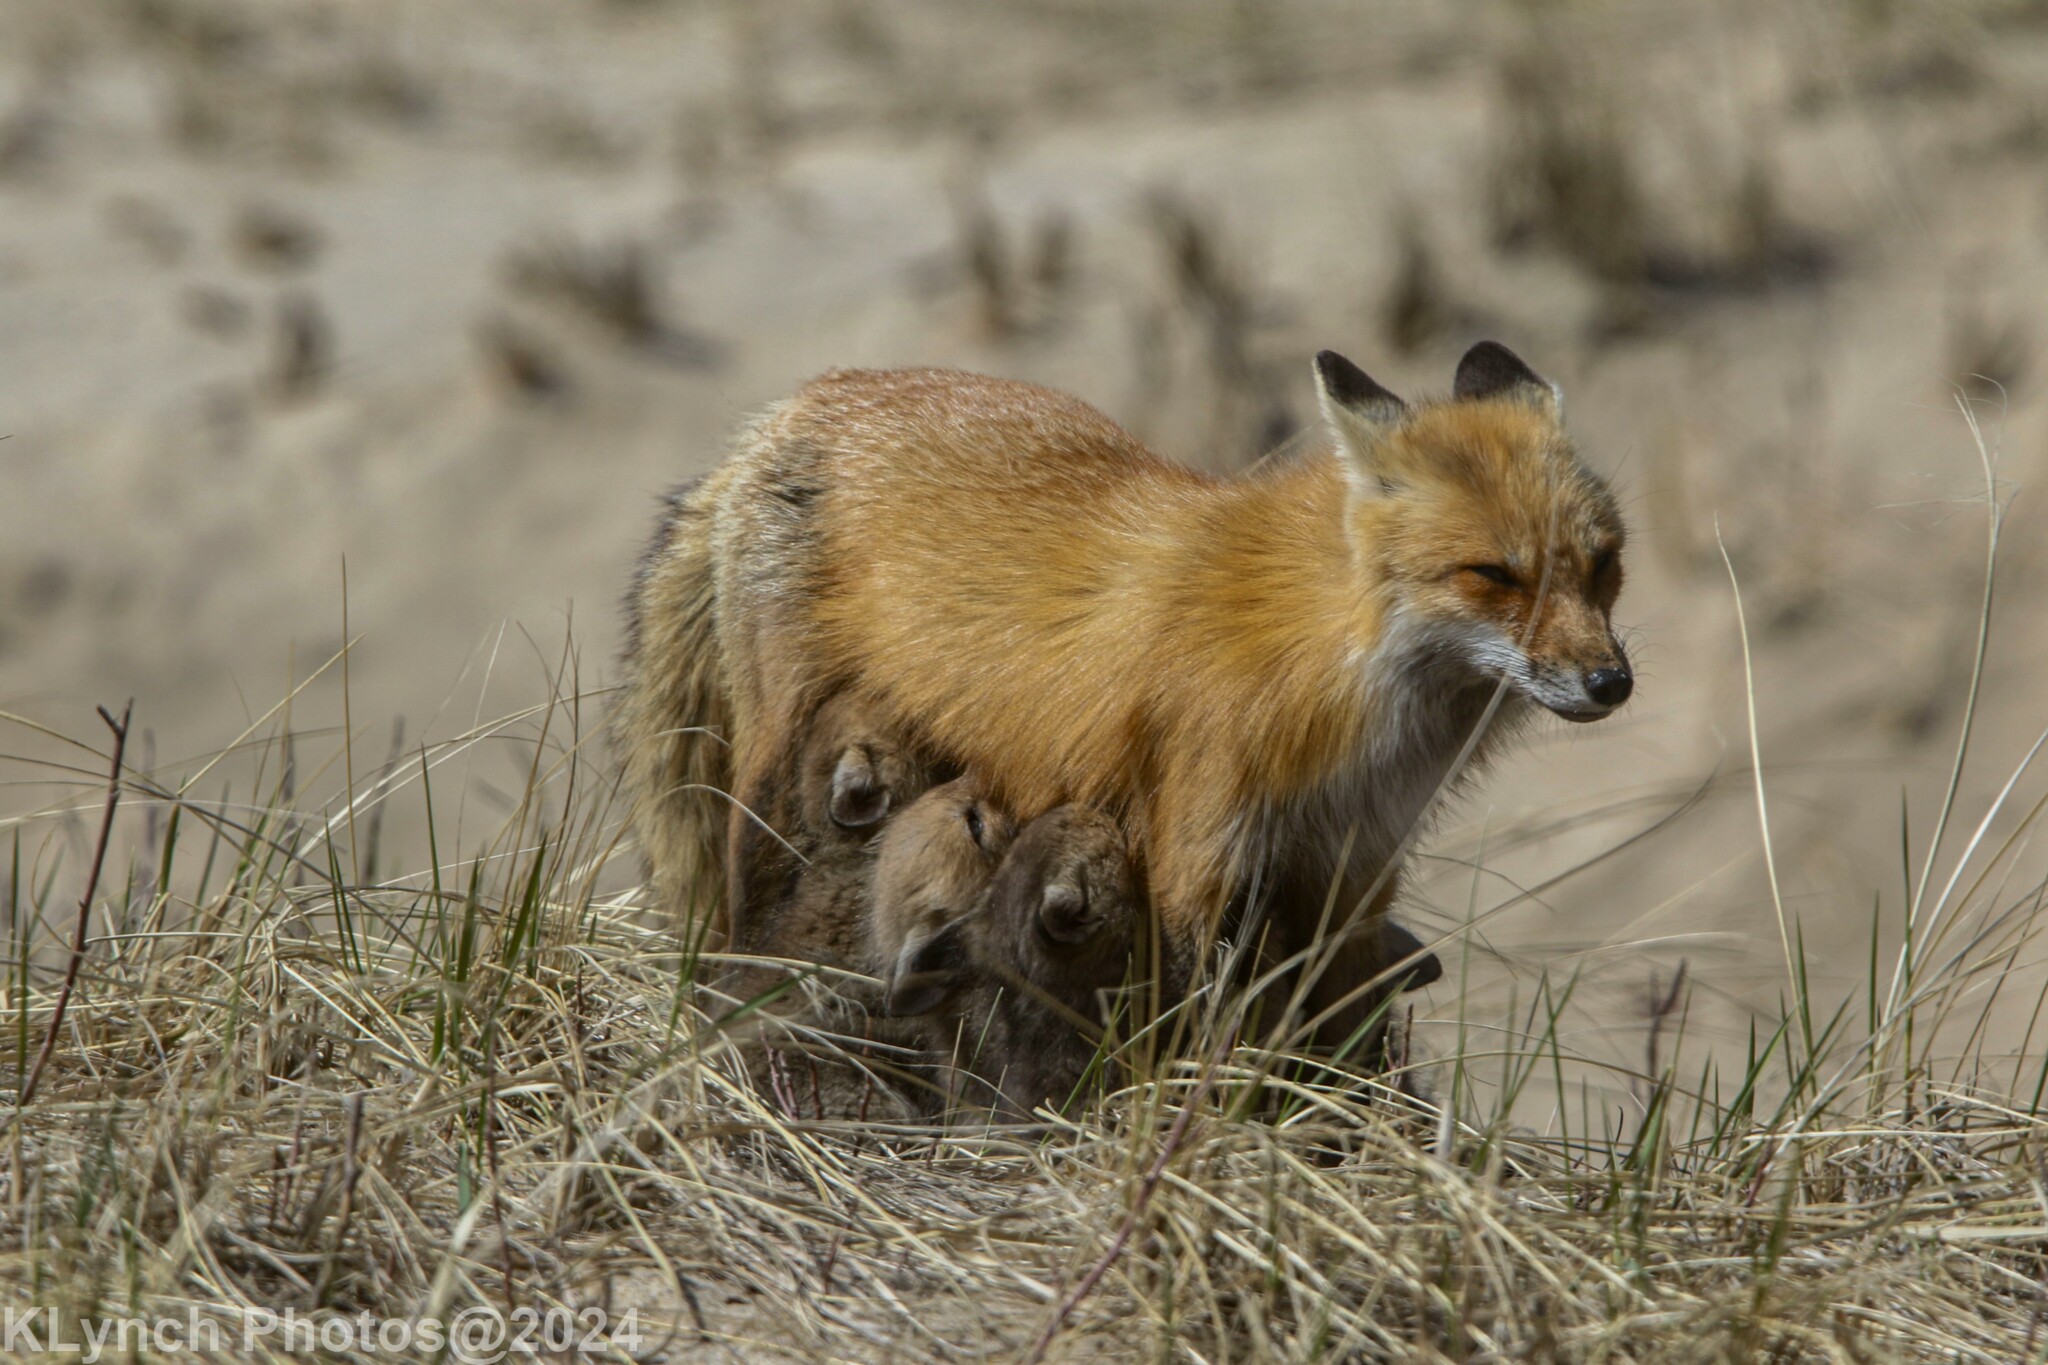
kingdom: Animalia
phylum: Chordata
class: Mammalia
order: Carnivora
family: Canidae
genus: Vulpes
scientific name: Vulpes vulpes
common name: Red fox
